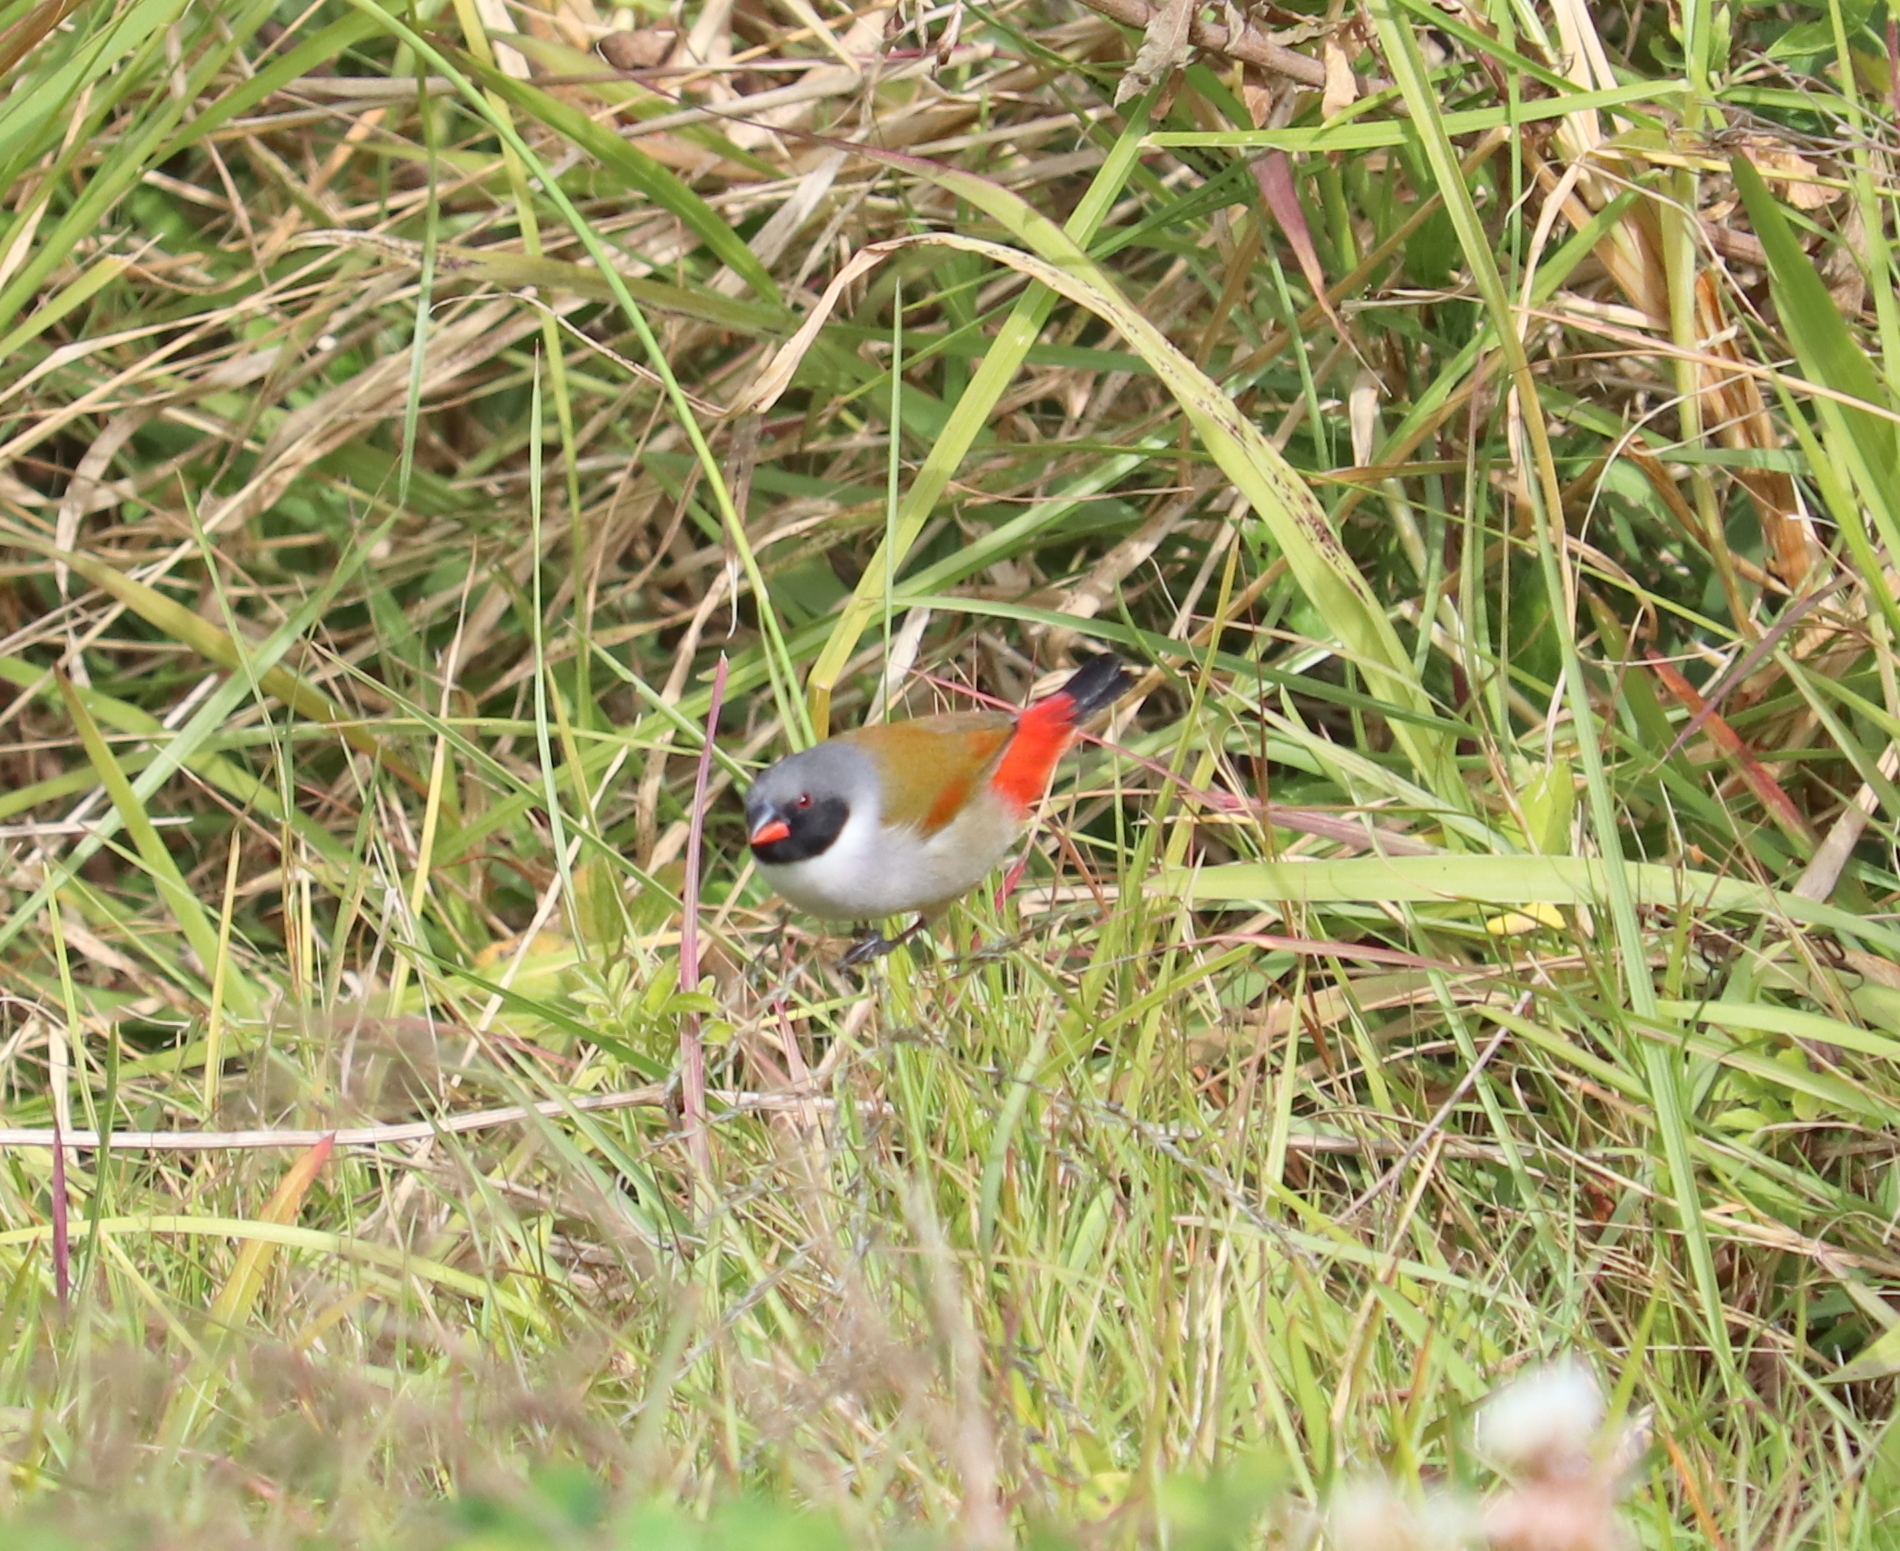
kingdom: Animalia
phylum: Chordata
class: Aves
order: Passeriformes
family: Estrildidae
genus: Coccopygia
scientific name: Coccopygia melanotis
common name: Swee waxbill
